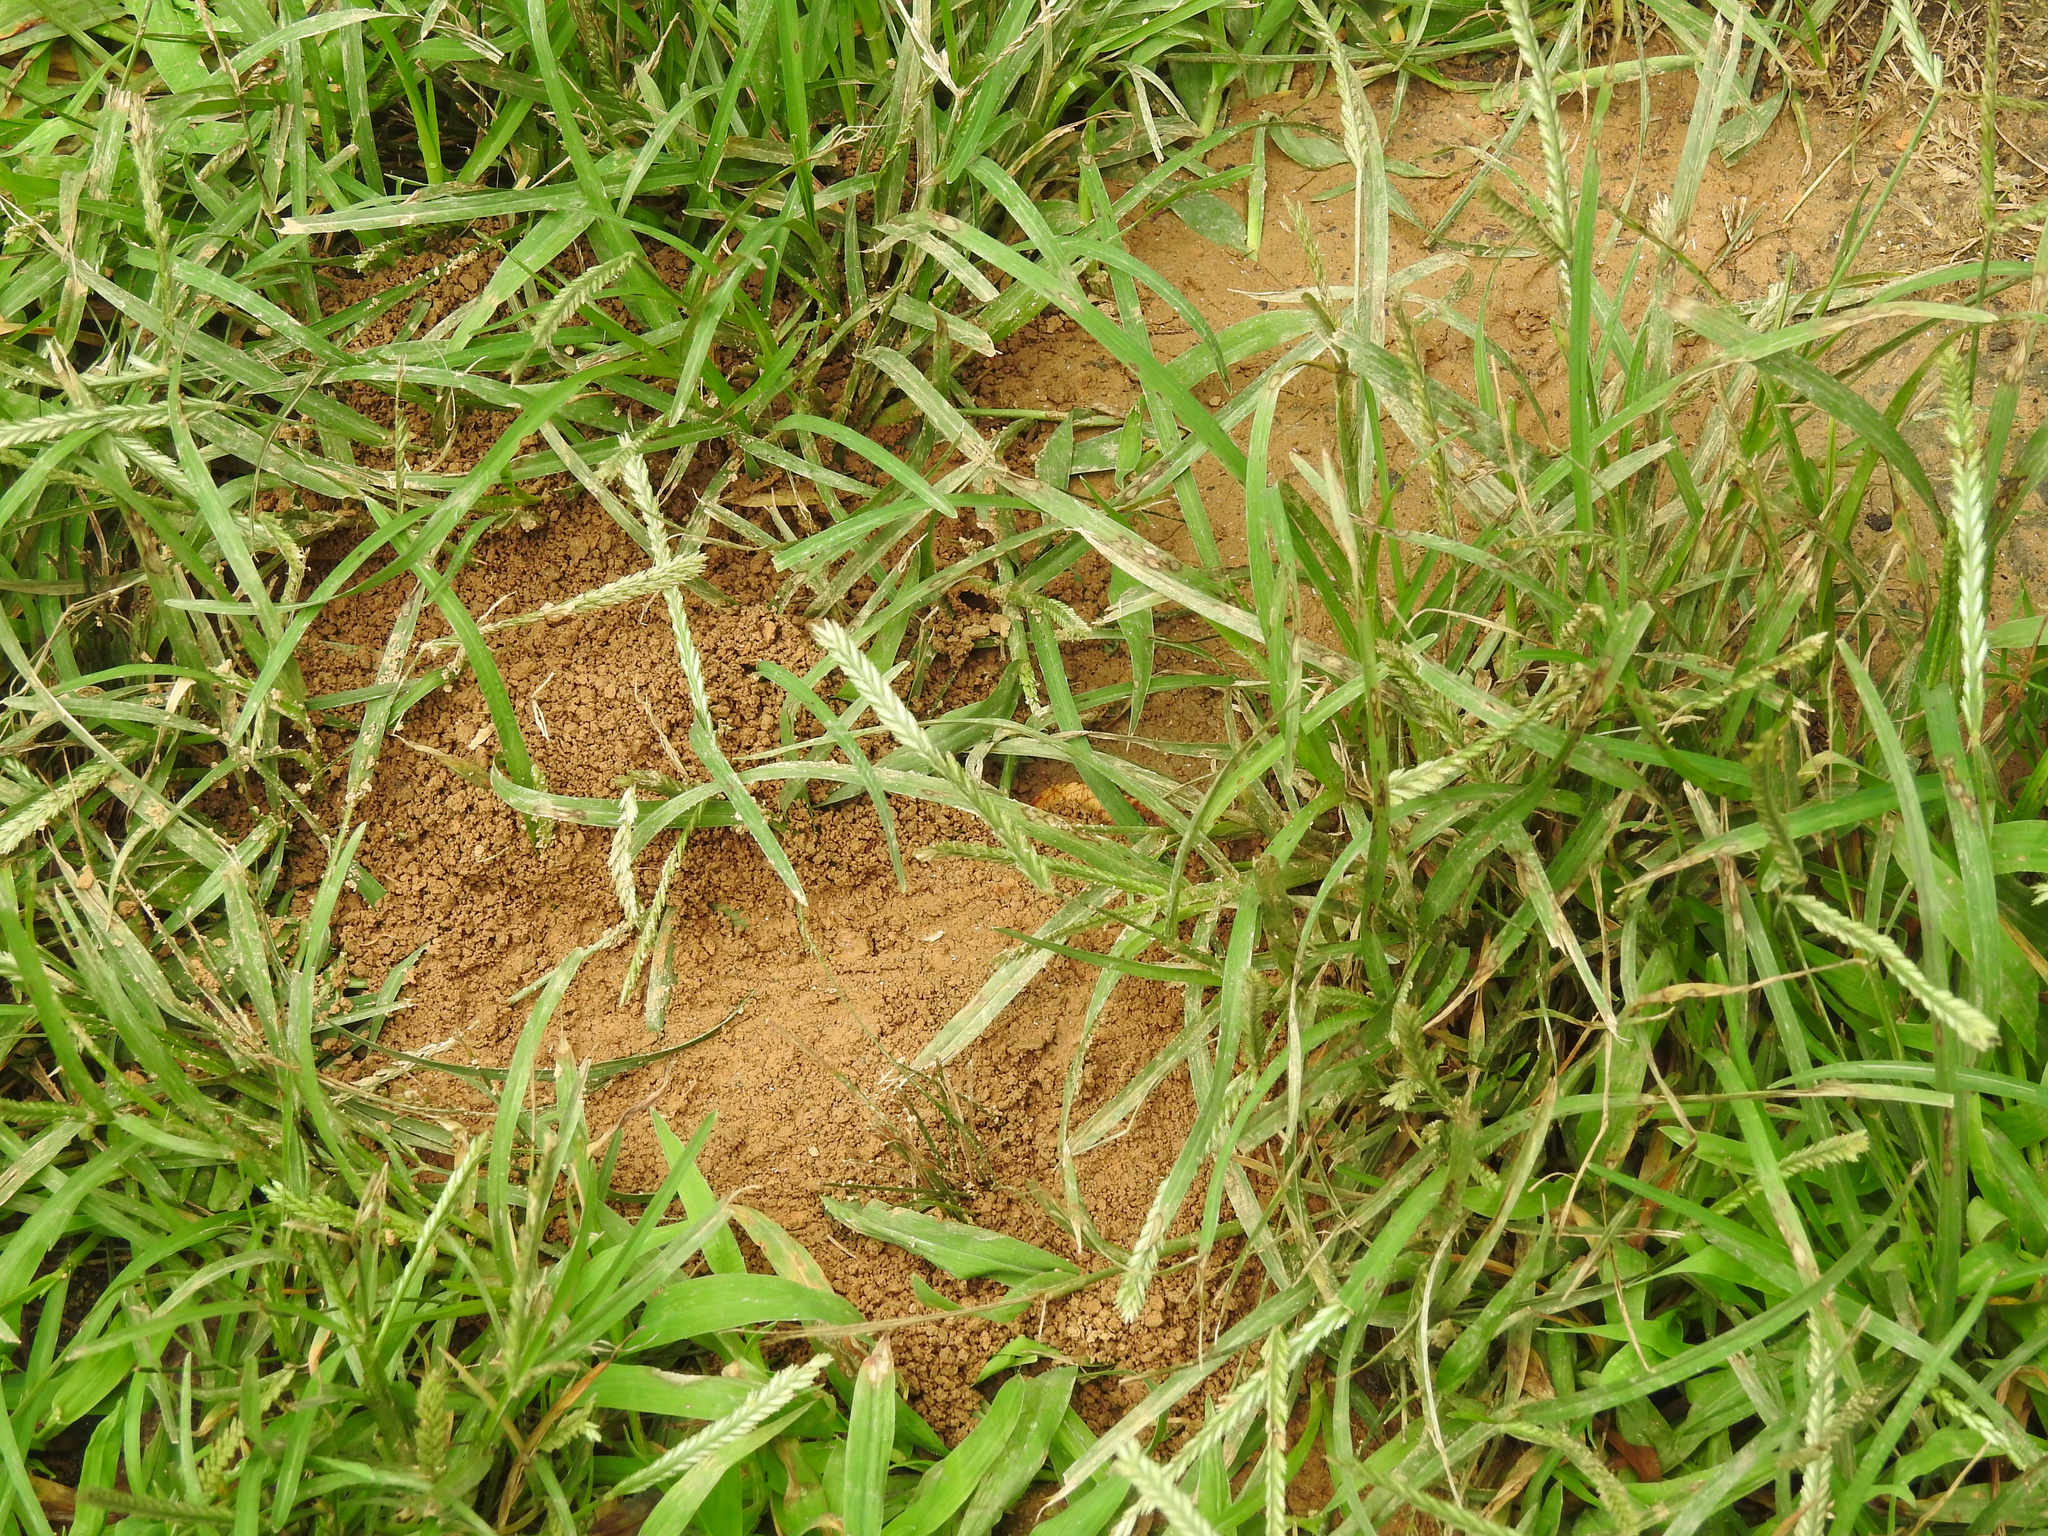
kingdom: Animalia
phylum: Arthropoda
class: Insecta
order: Hymenoptera
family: Crabronidae
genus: Sphecius
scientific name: Sphecius speciosus
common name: Cicada killer
